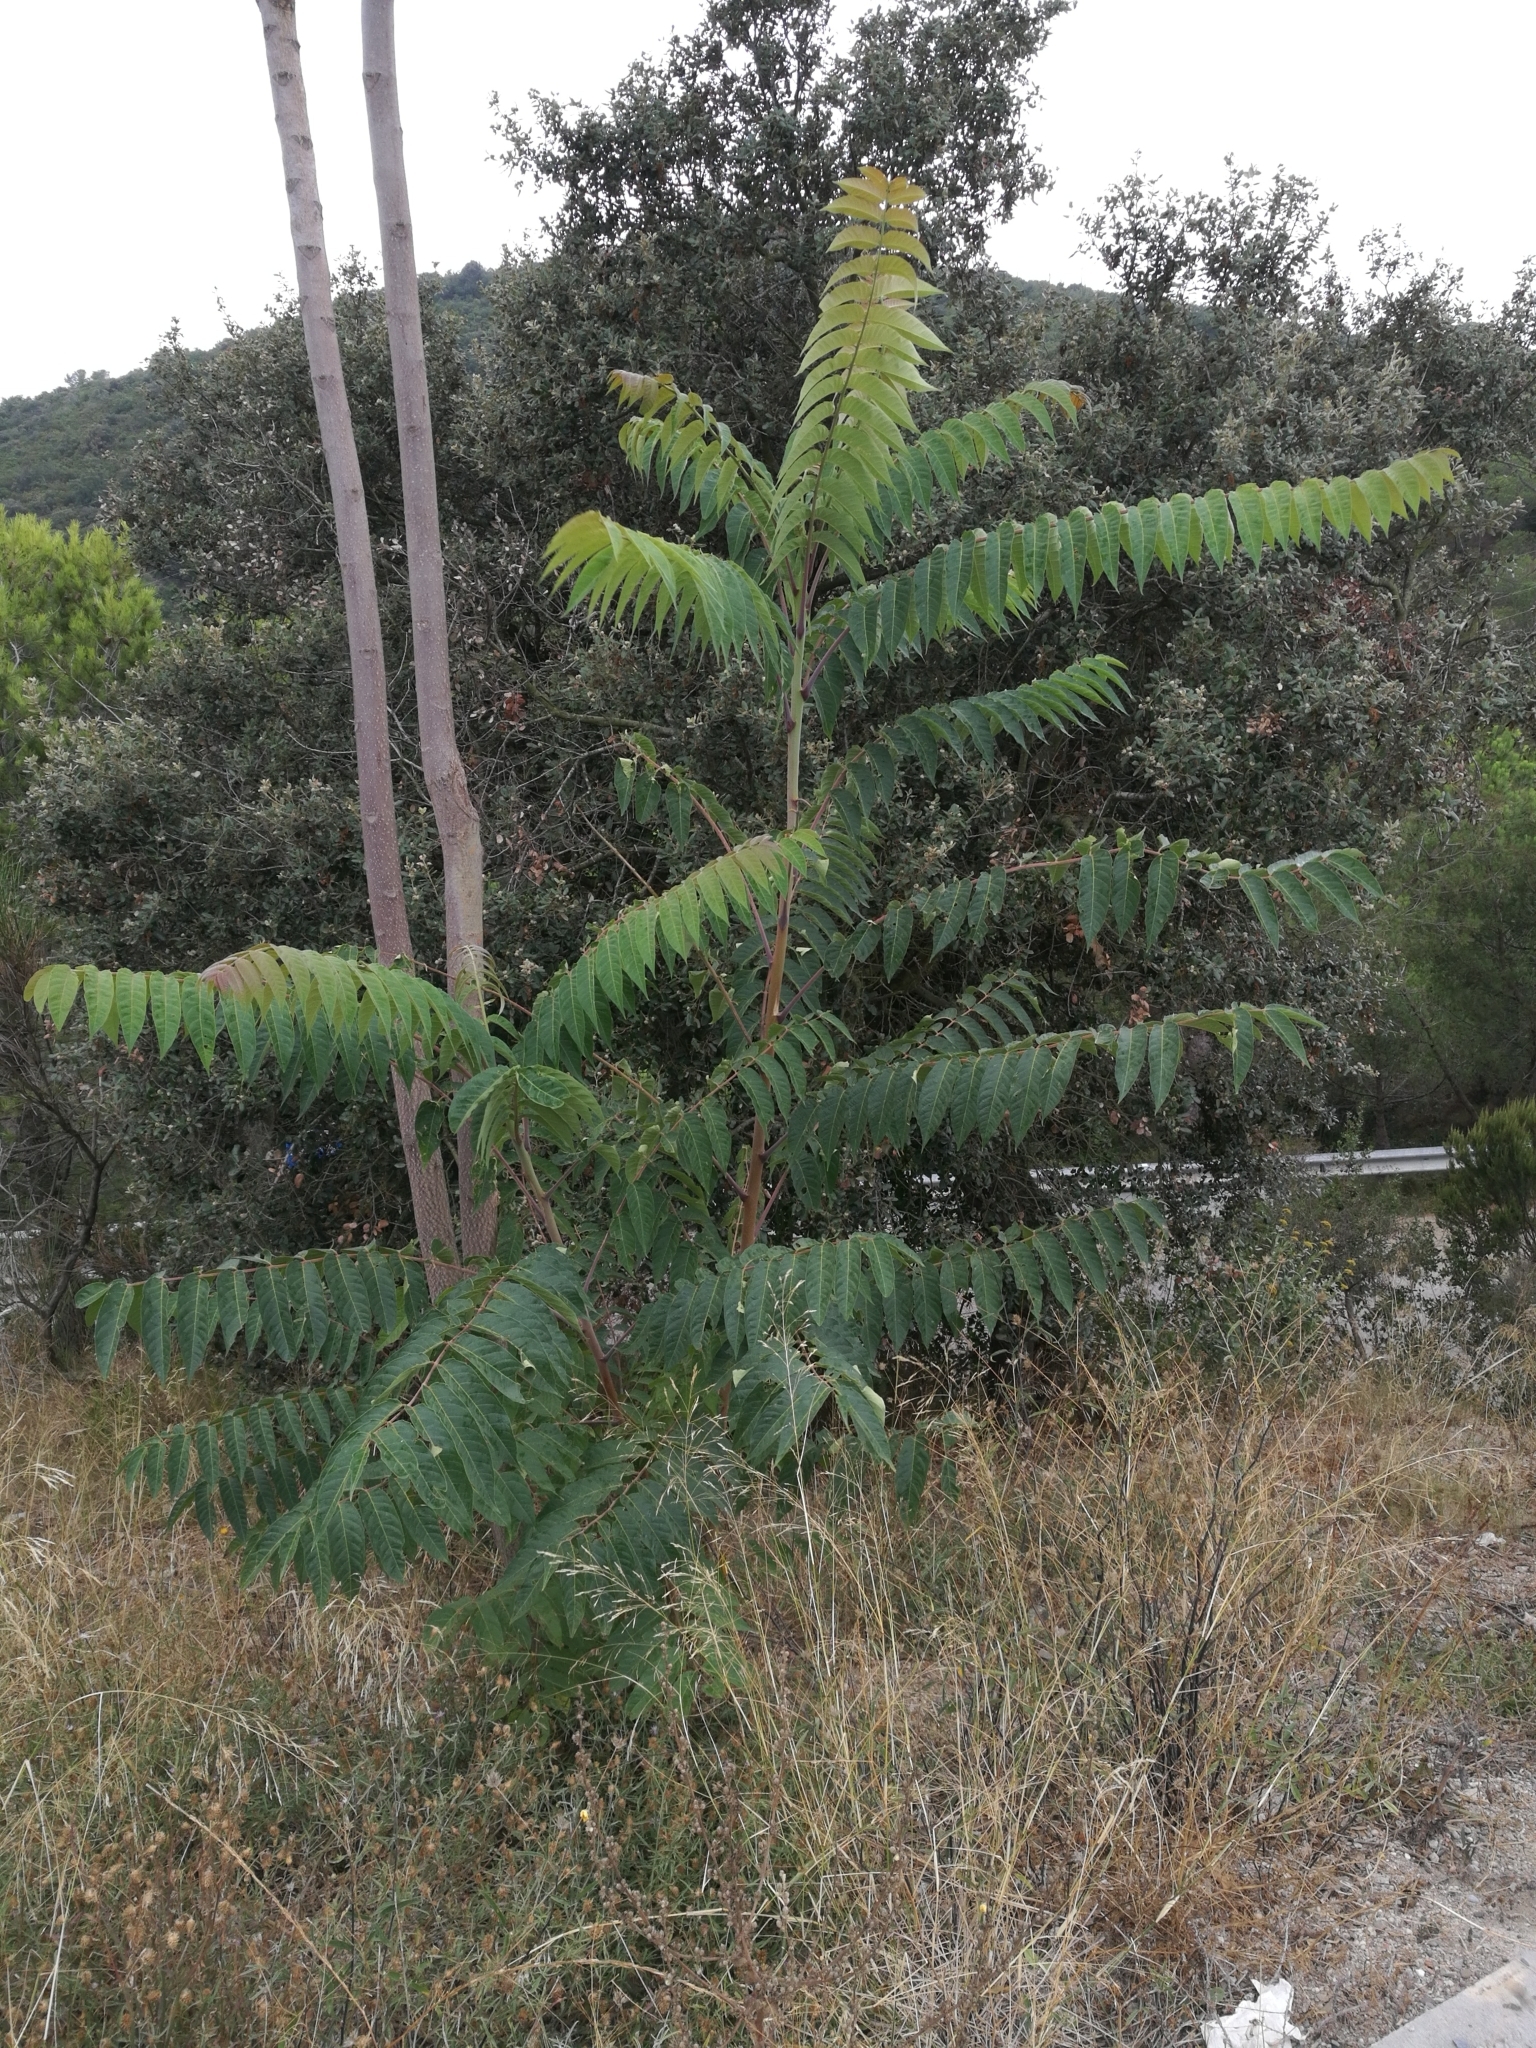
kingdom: Plantae
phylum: Tracheophyta
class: Magnoliopsida
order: Sapindales
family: Simaroubaceae
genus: Ailanthus
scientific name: Ailanthus altissima
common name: Tree-of-heaven
